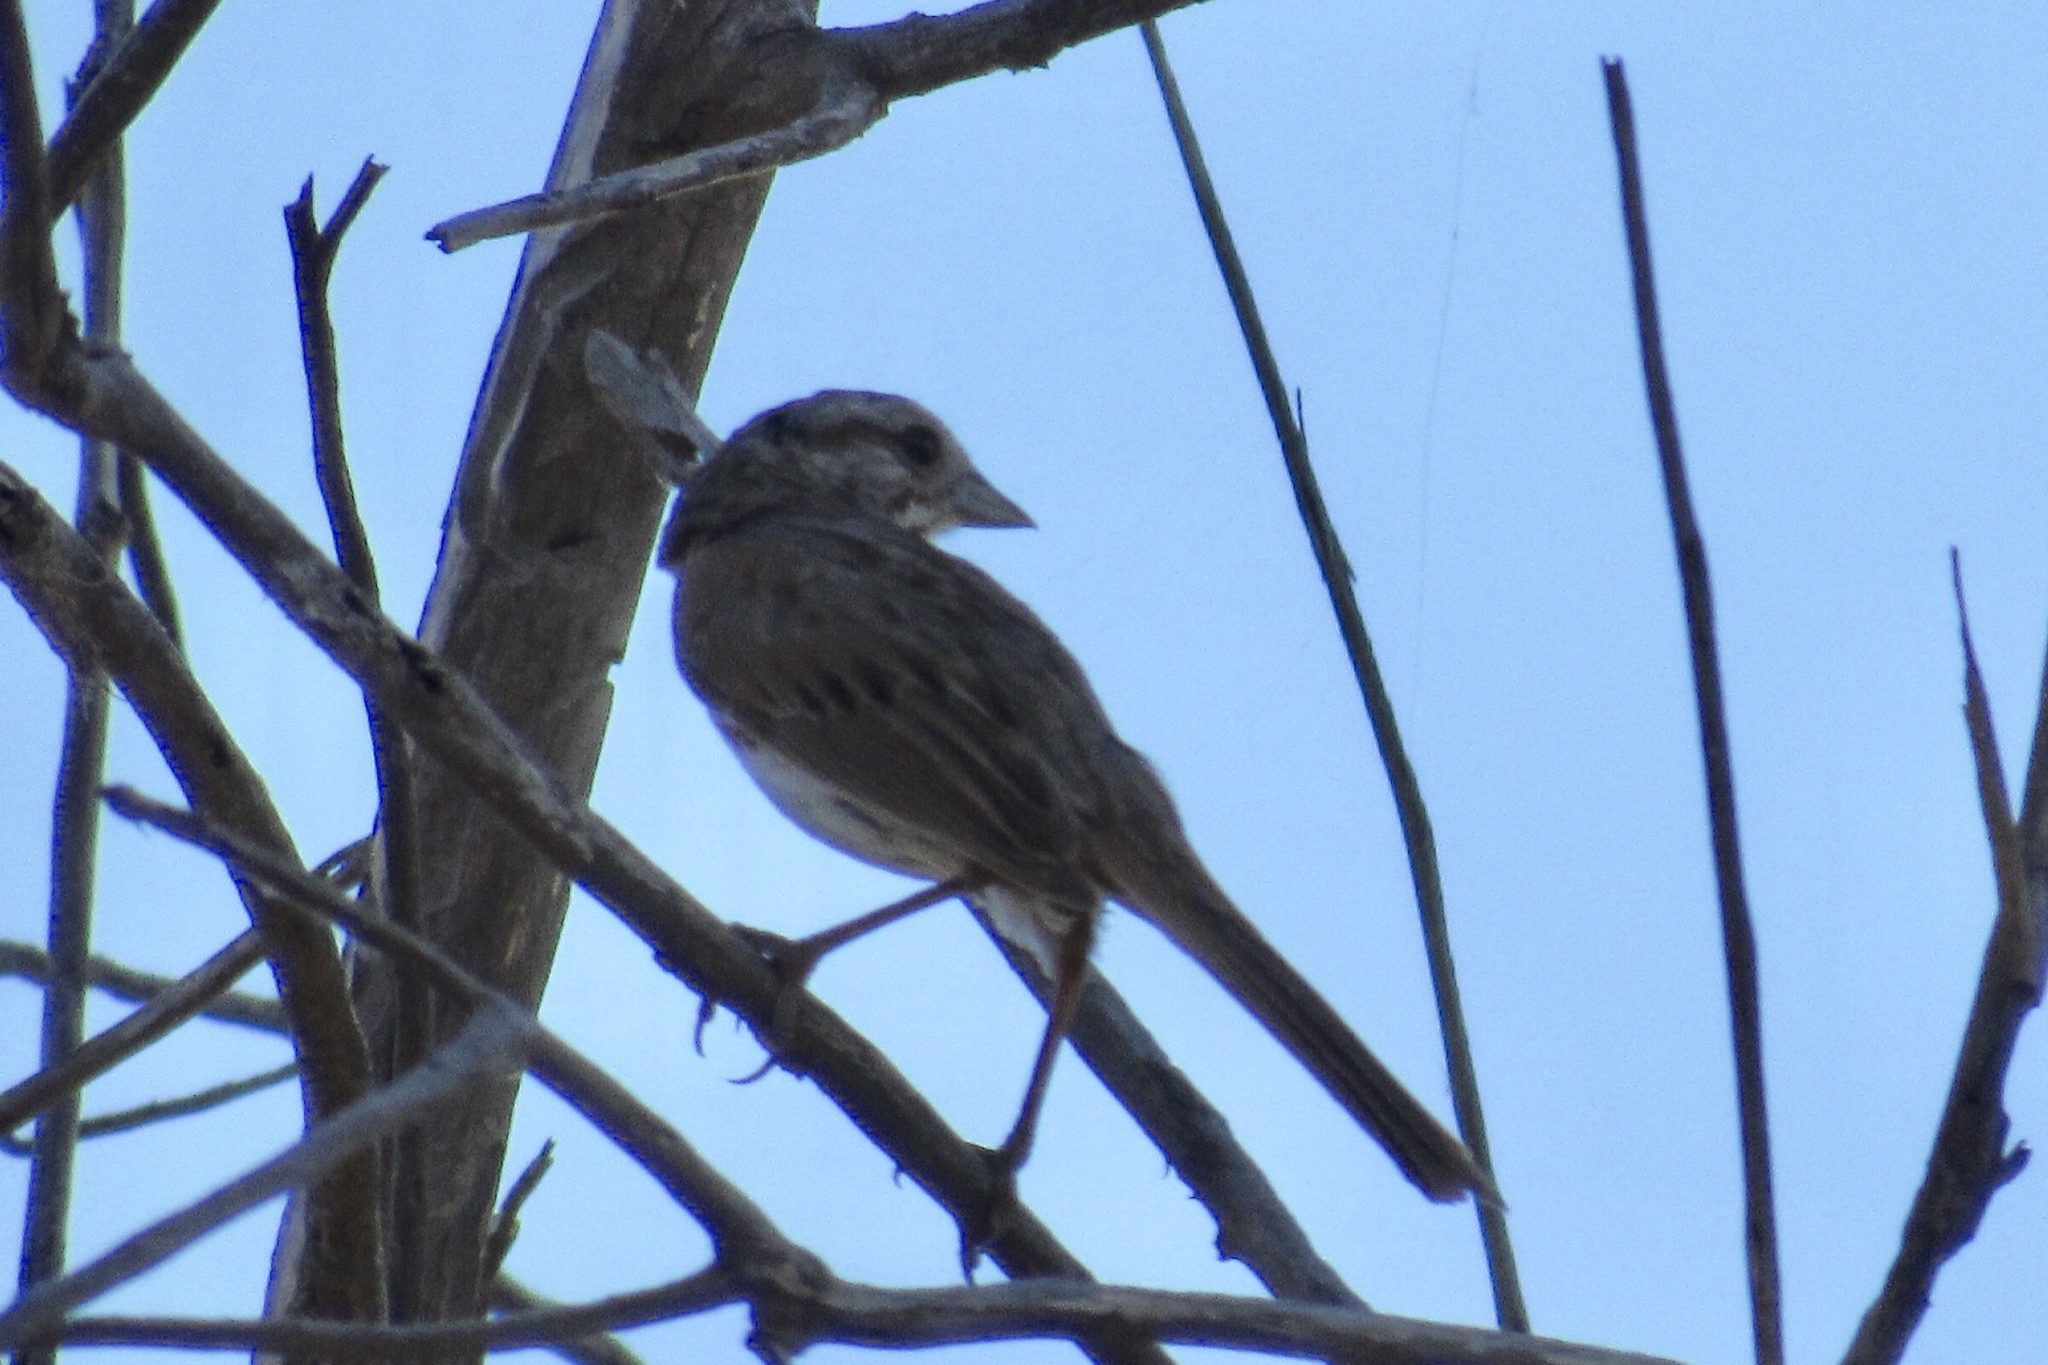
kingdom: Animalia
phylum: Chordata
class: Aves
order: Passeriformes
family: Passerellidae
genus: Melospiza
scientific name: Melospiza melodia
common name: Song sparrow
